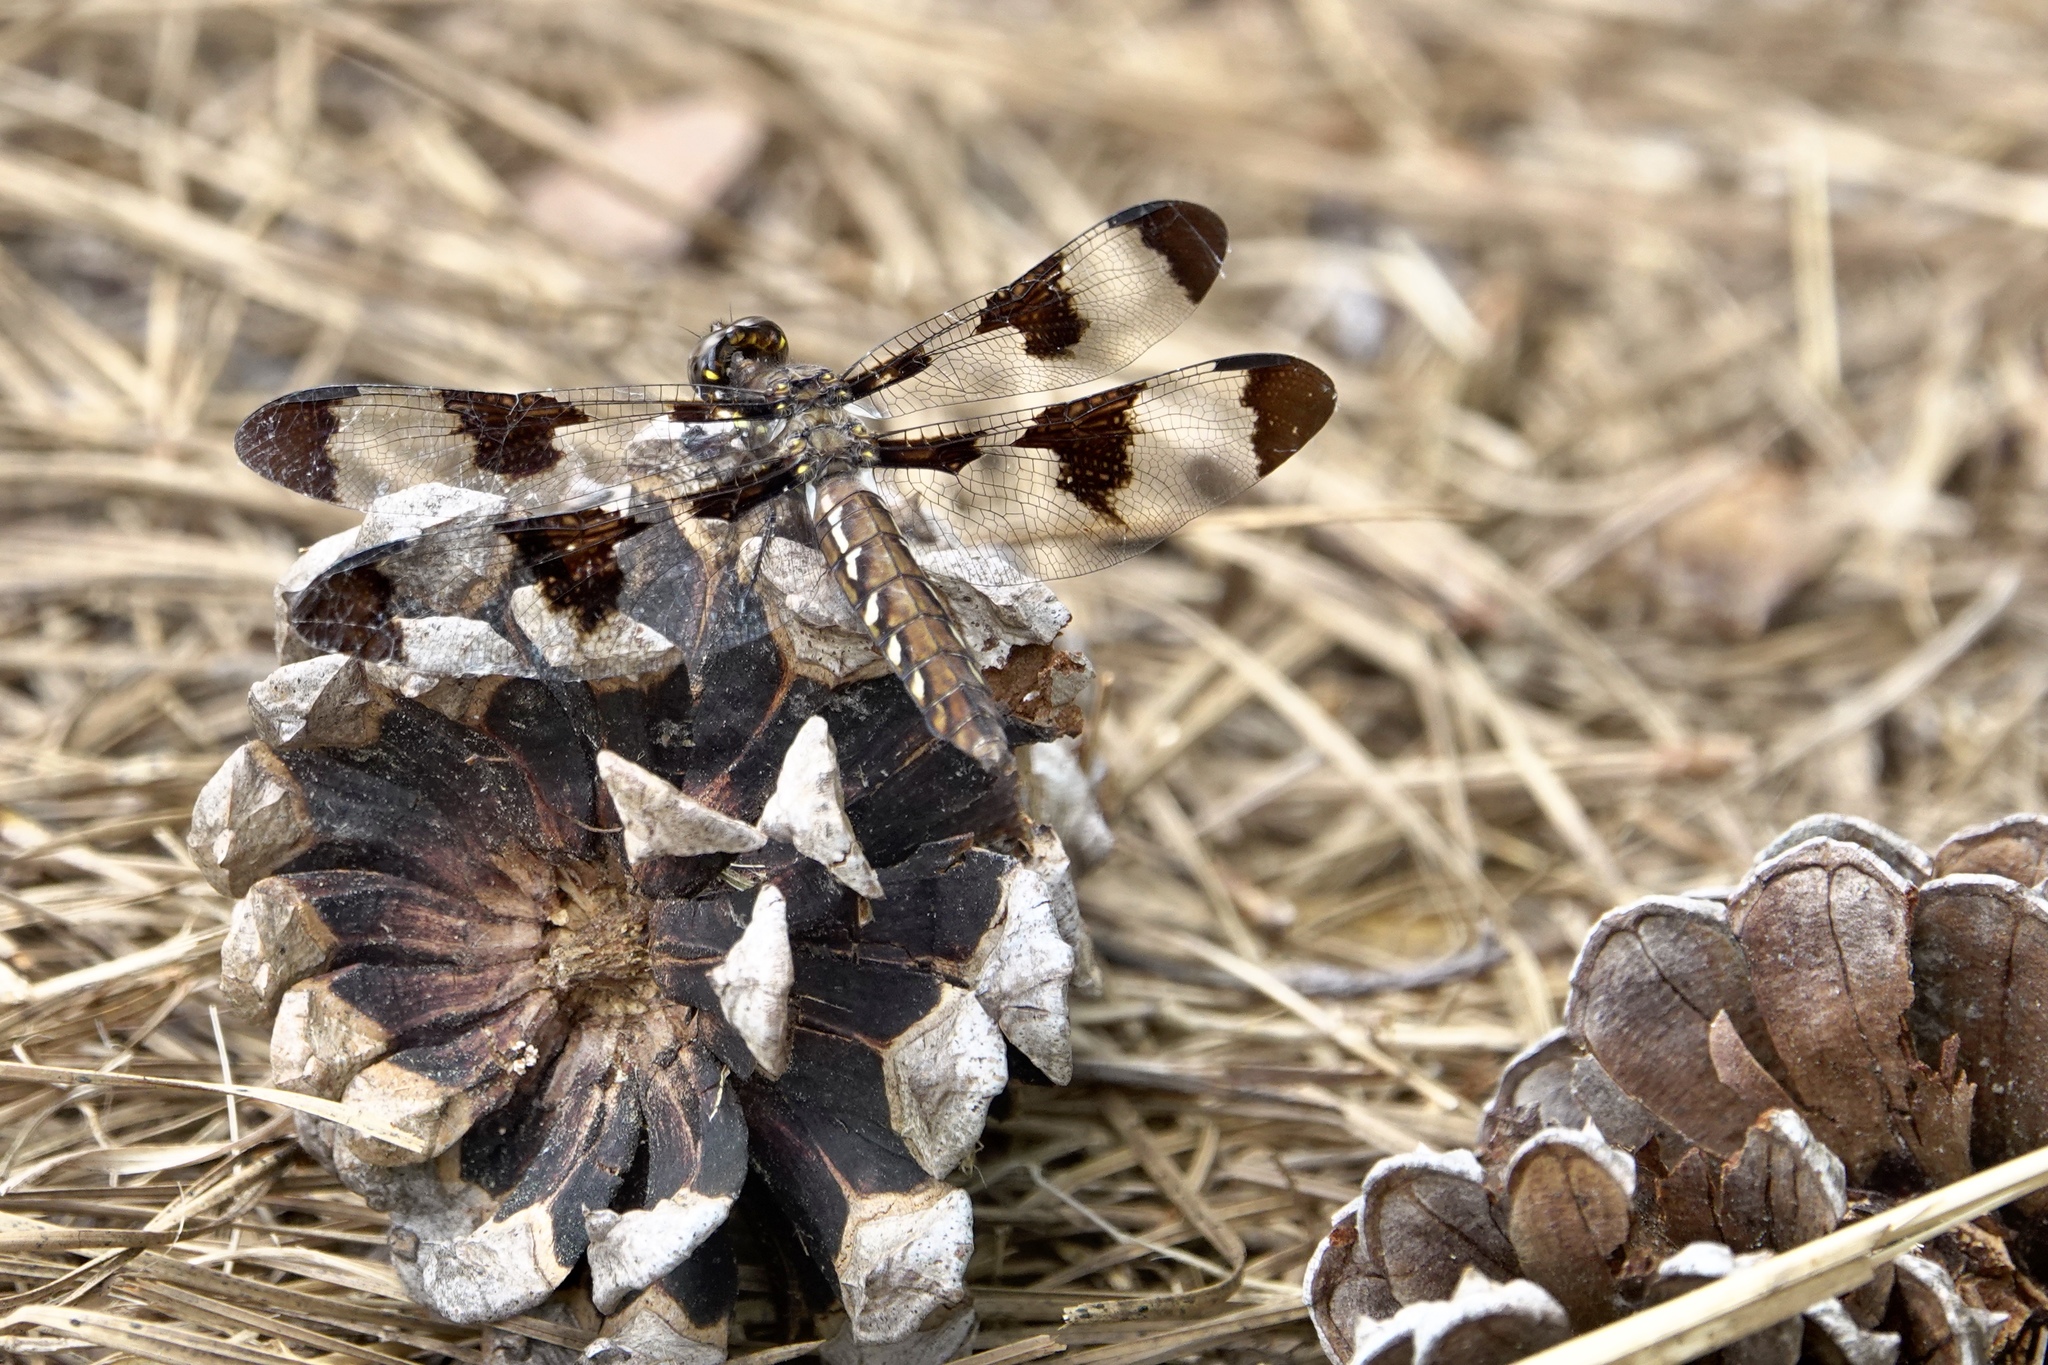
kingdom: Animalia
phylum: Arthropoda
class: Insecta
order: Odonata
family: Libellulidae
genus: Plathemis
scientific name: Plathemis lydia
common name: Common whitetail
